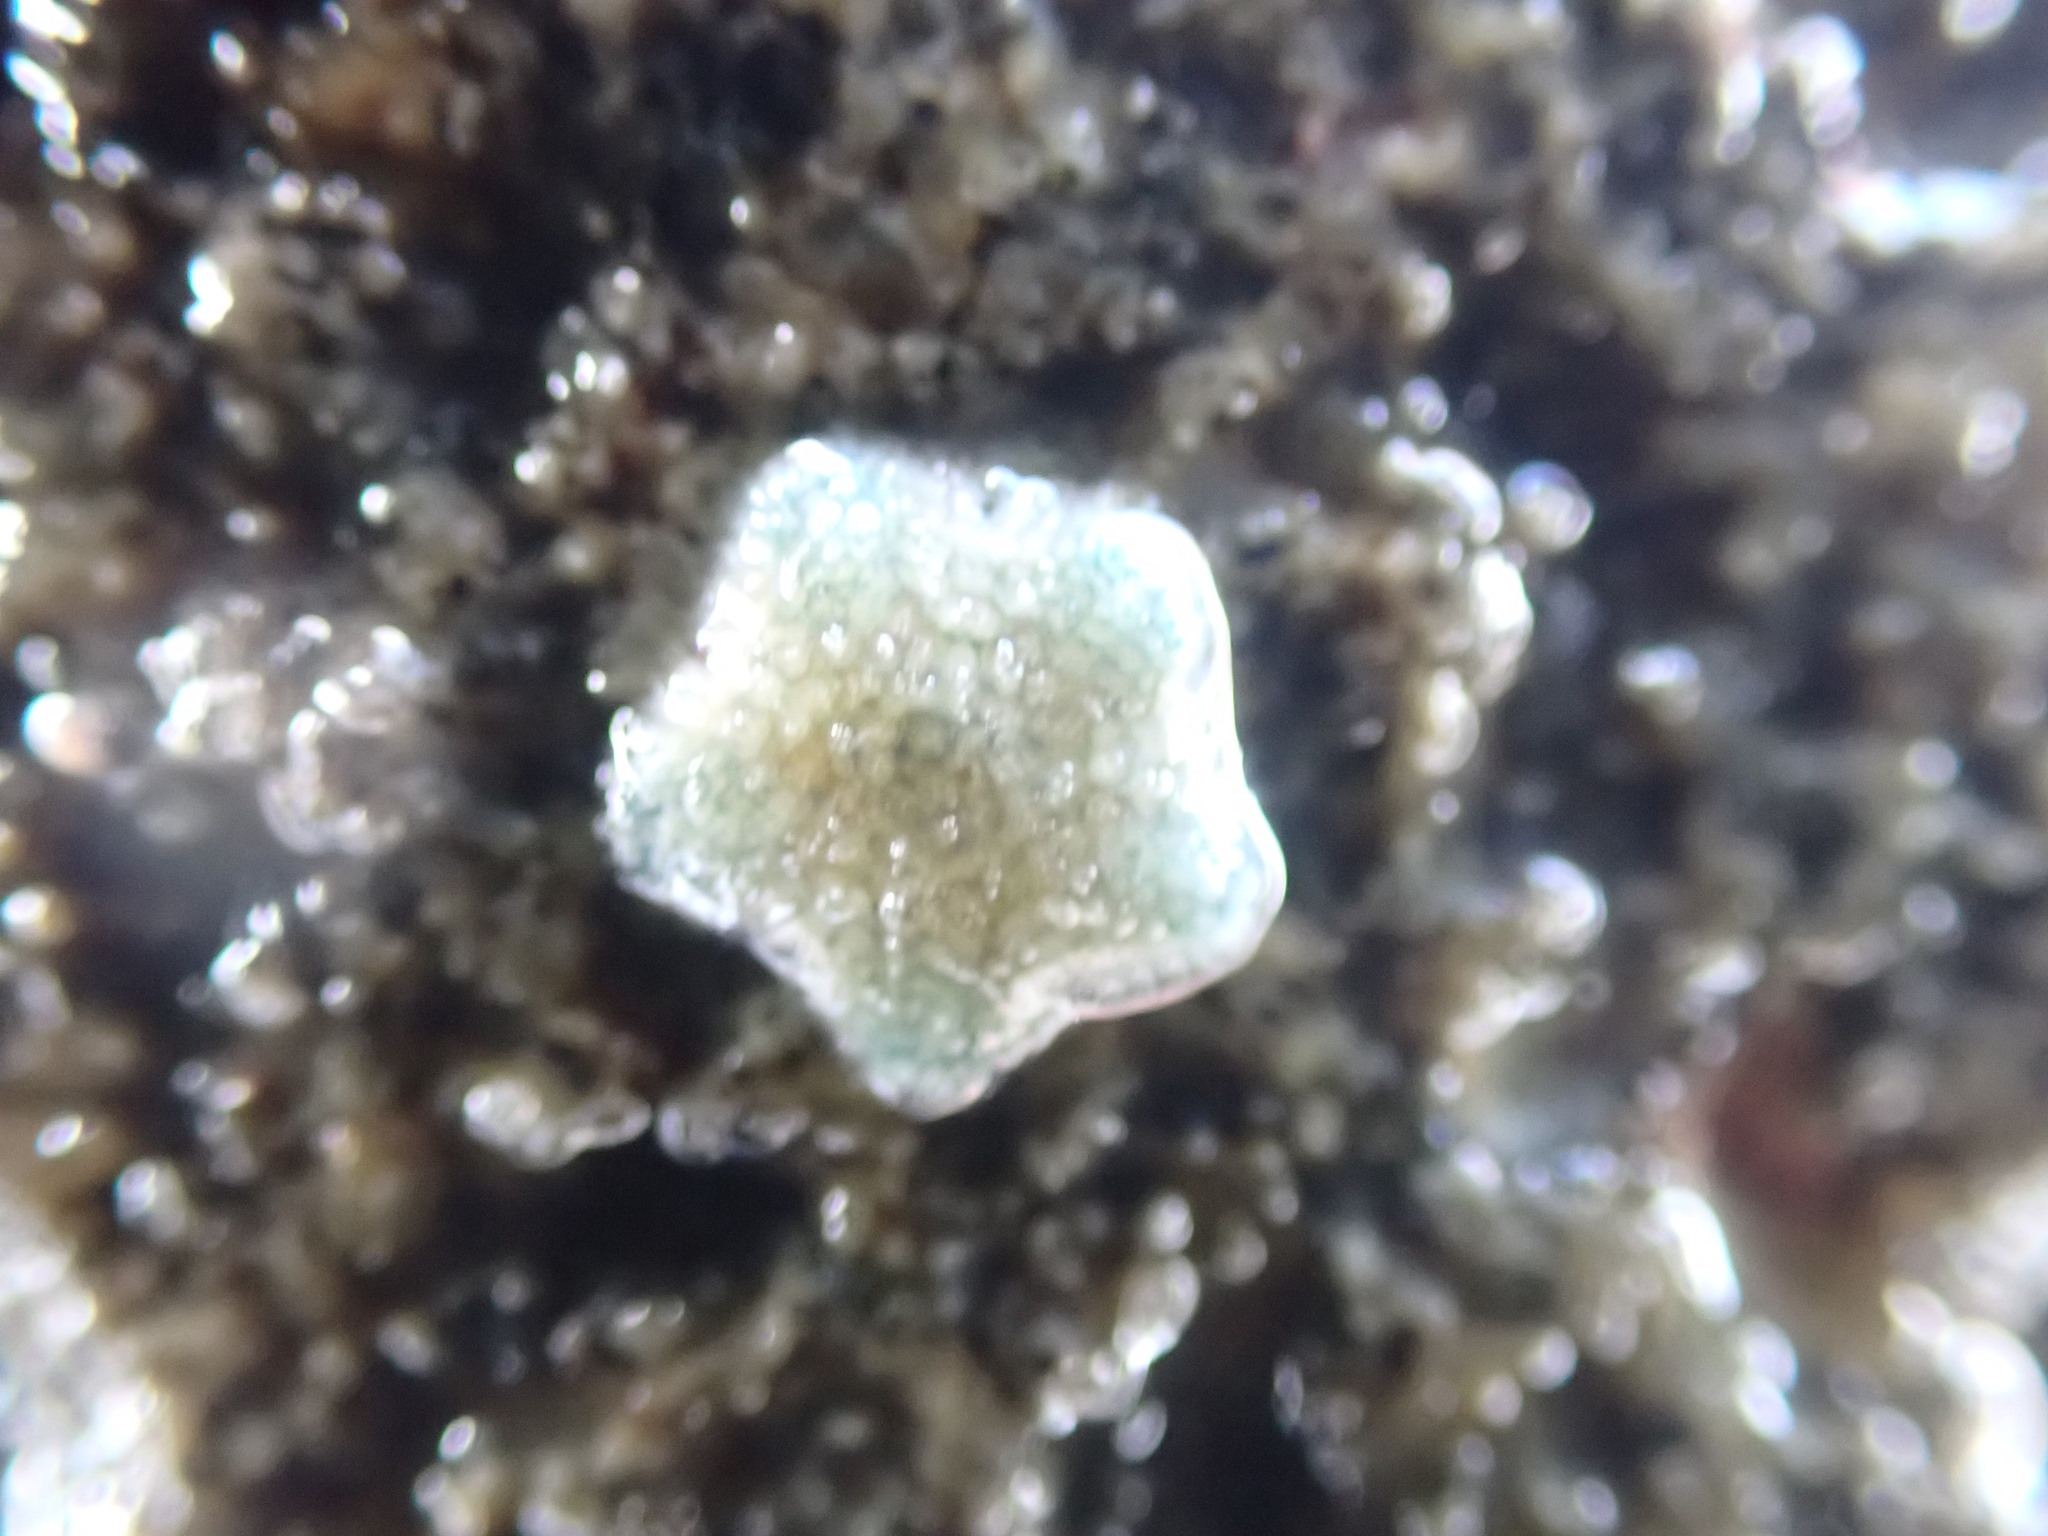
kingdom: Animalia
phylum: Echinodermata
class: Asteroidea
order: Valvatida
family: Asterinidae
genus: Patiriella
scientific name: Patiriella regularis
